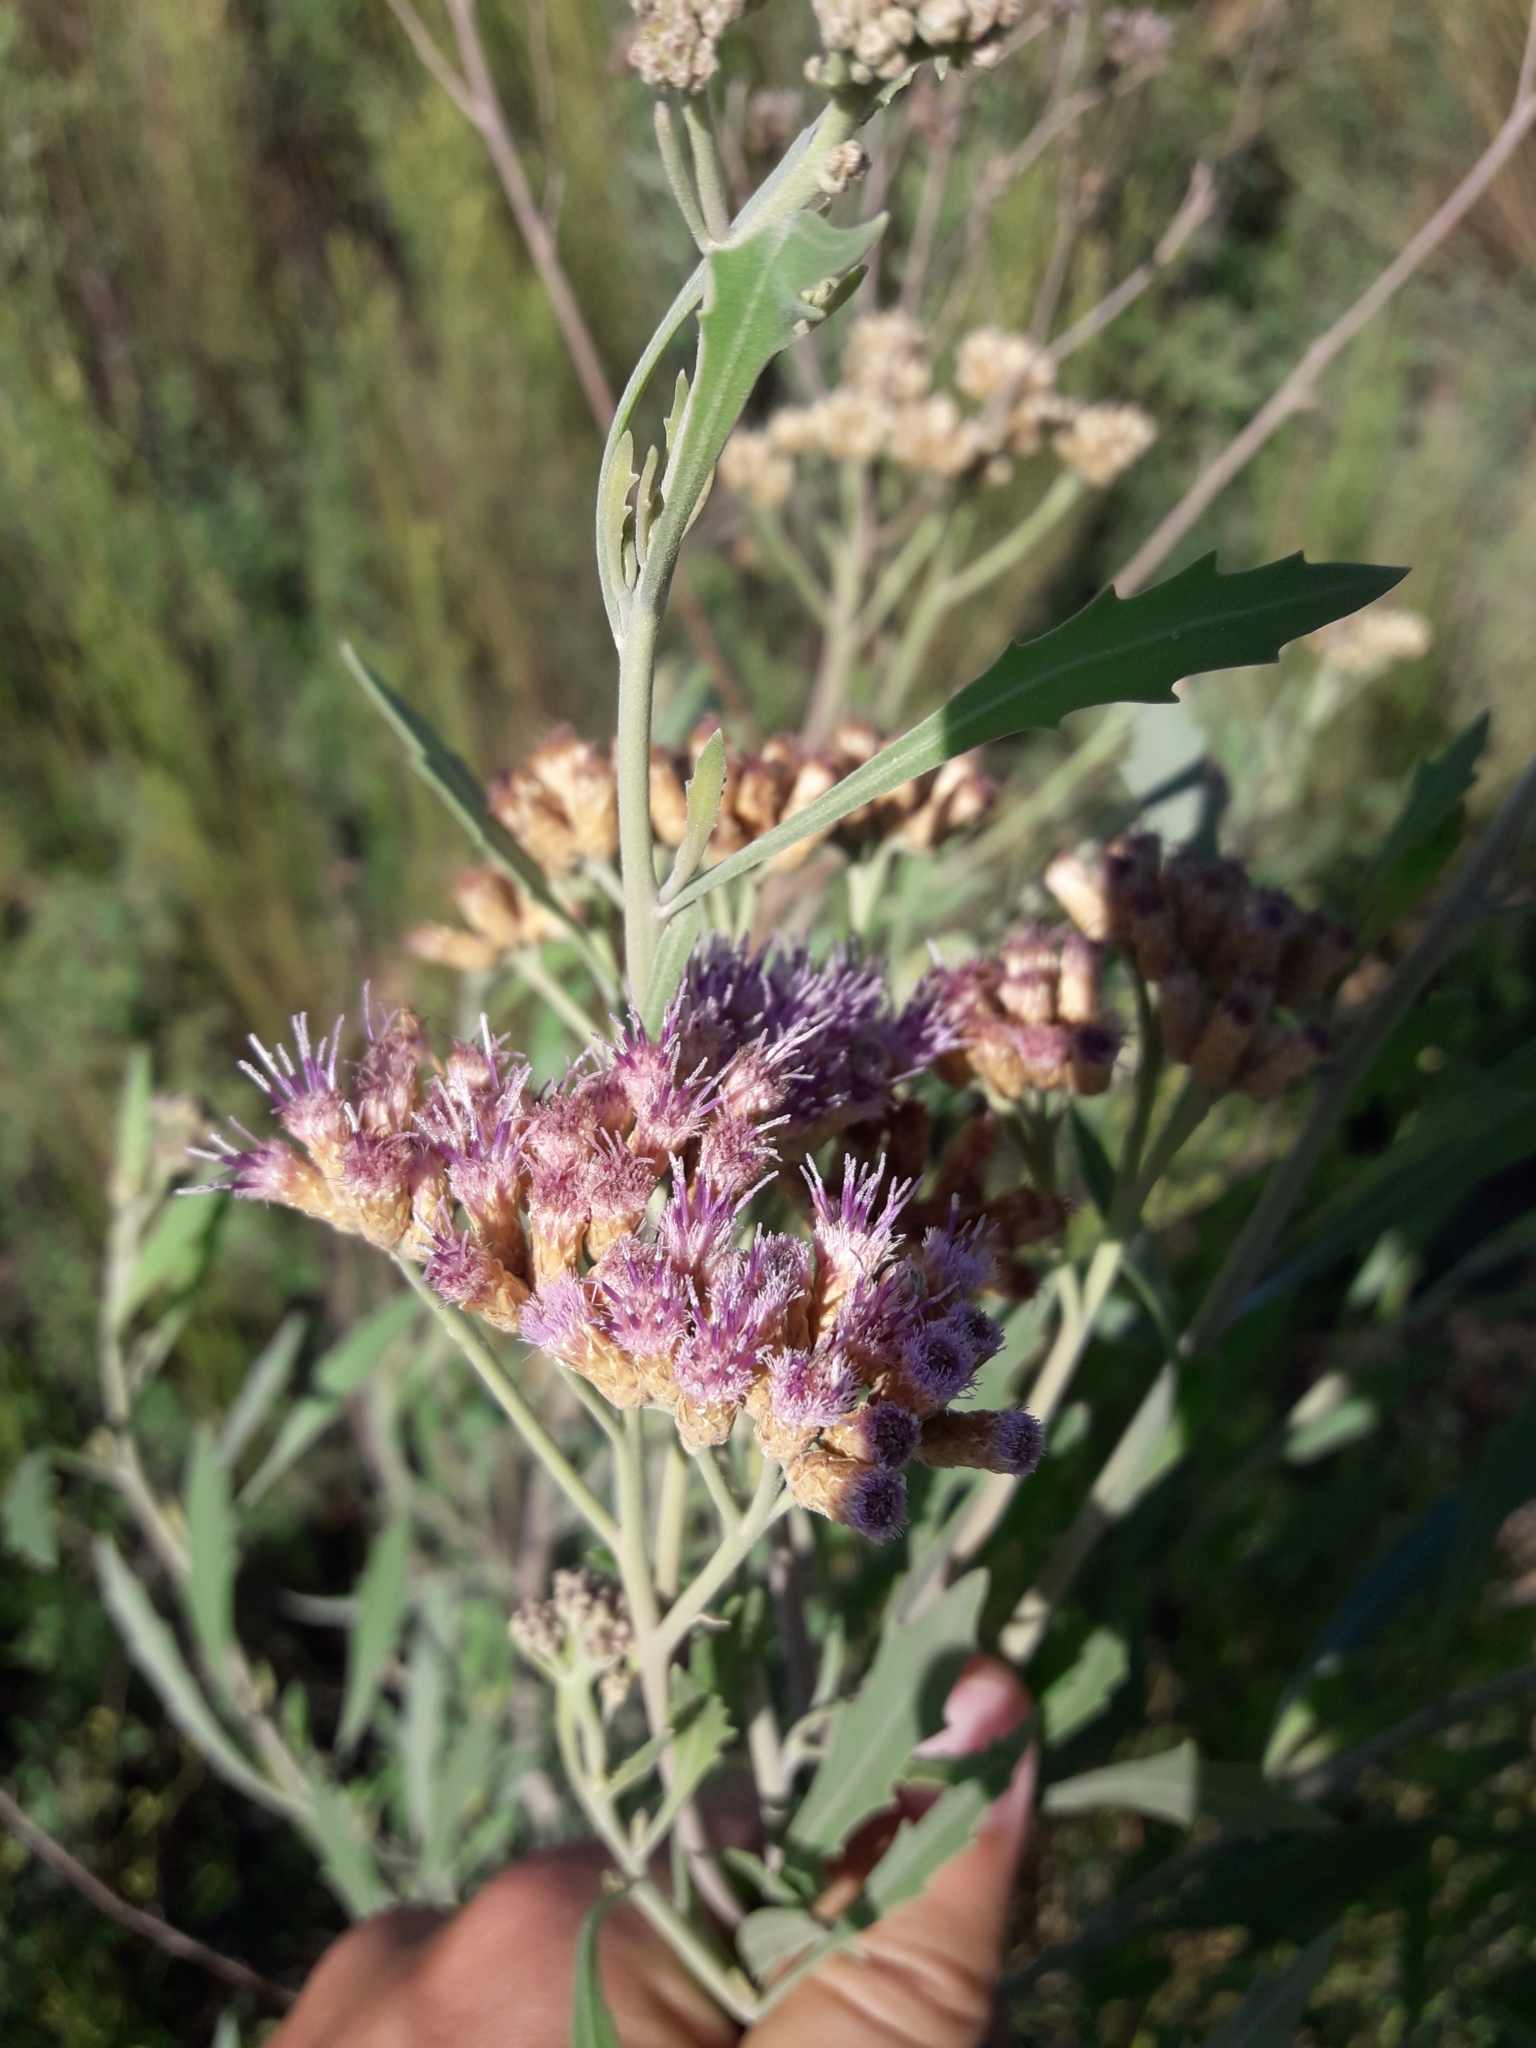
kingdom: Plantae
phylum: Tracheophyta
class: Magnoliopsida
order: Asterales
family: Asteraceae
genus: Tessaria
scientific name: Tessaria absinthioides
